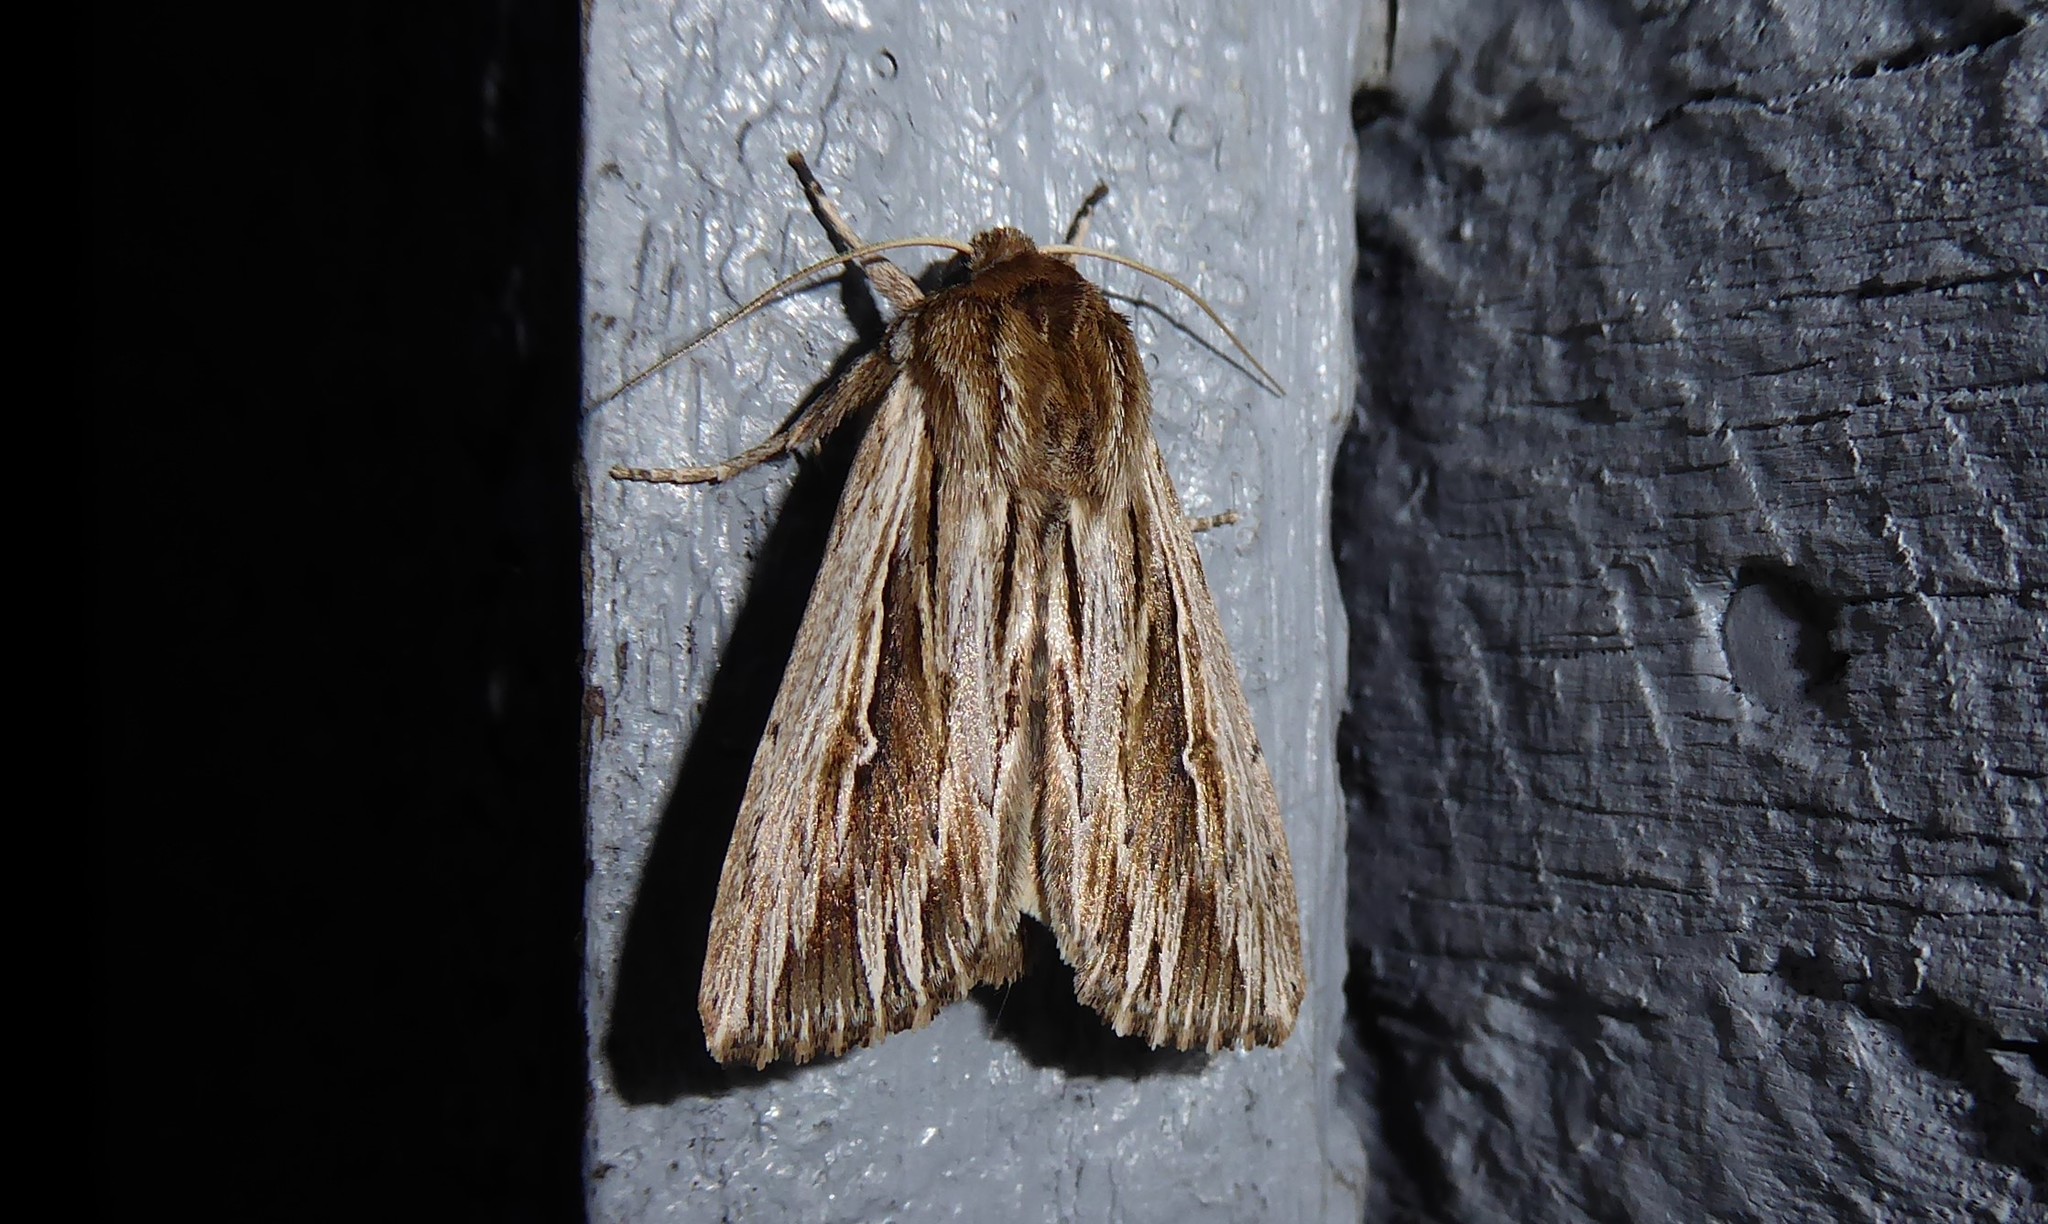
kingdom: Animalia
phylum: Arthropoda
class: Insecta
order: Lepidoptera
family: Noctuidae
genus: Persectania
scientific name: Persectania aversa
